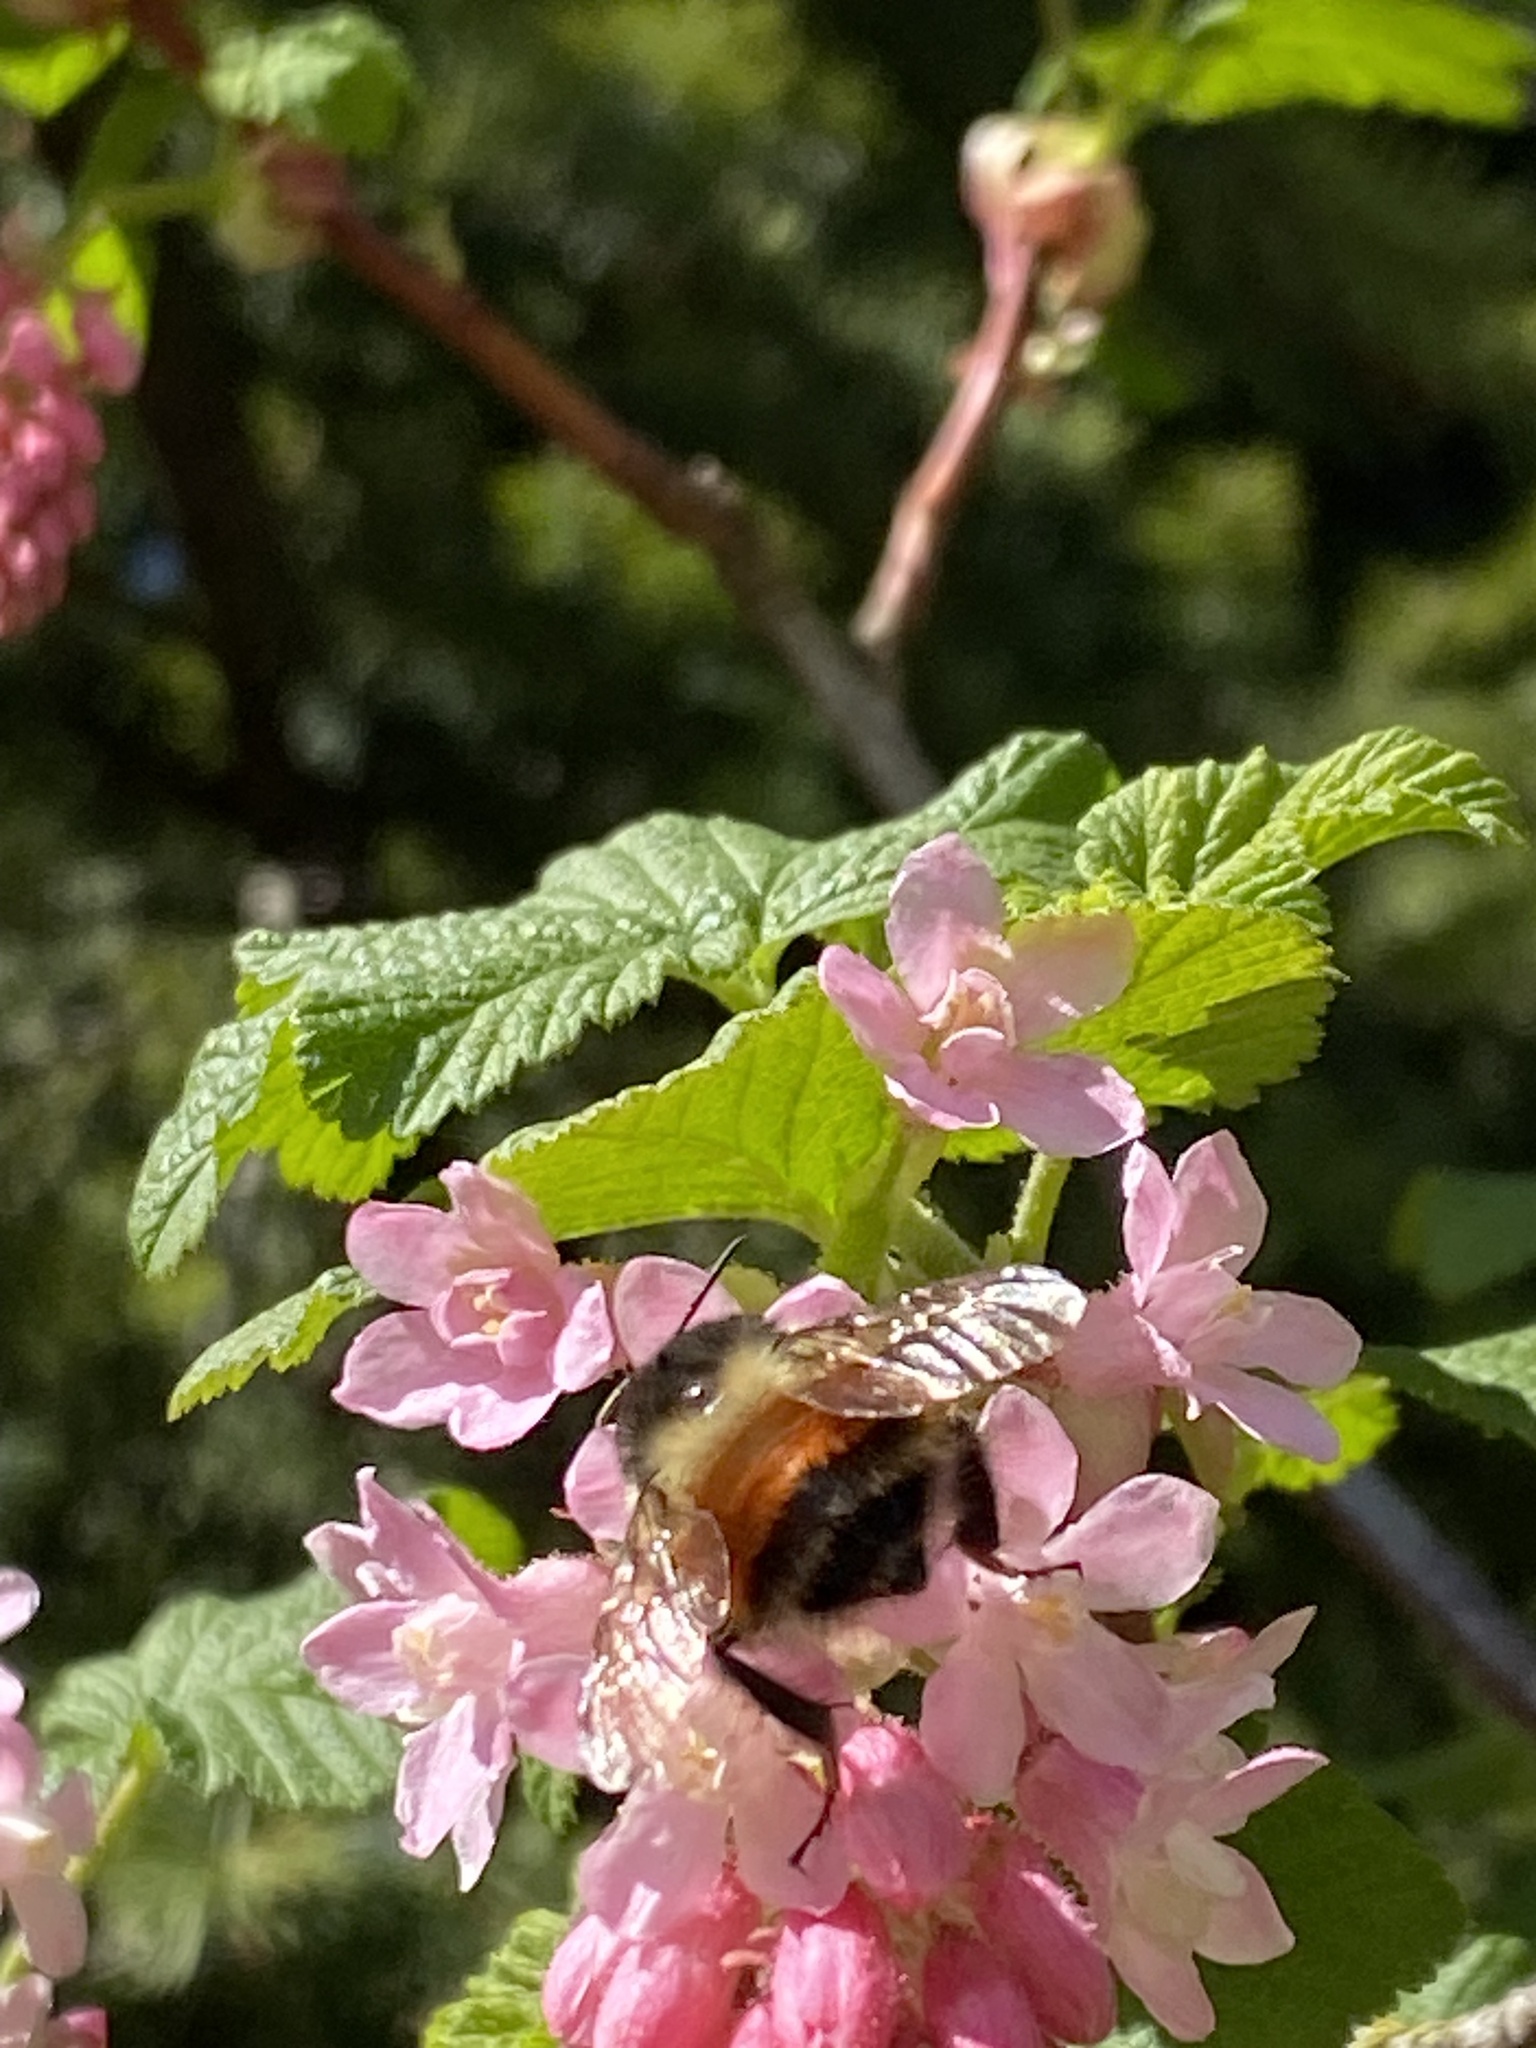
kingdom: Animalia
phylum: Arthropoda
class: Insecta
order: Hymenoptera
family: Apidae
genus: Bombus
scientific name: Bombus melanopygus
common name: Black tail bumble bee
